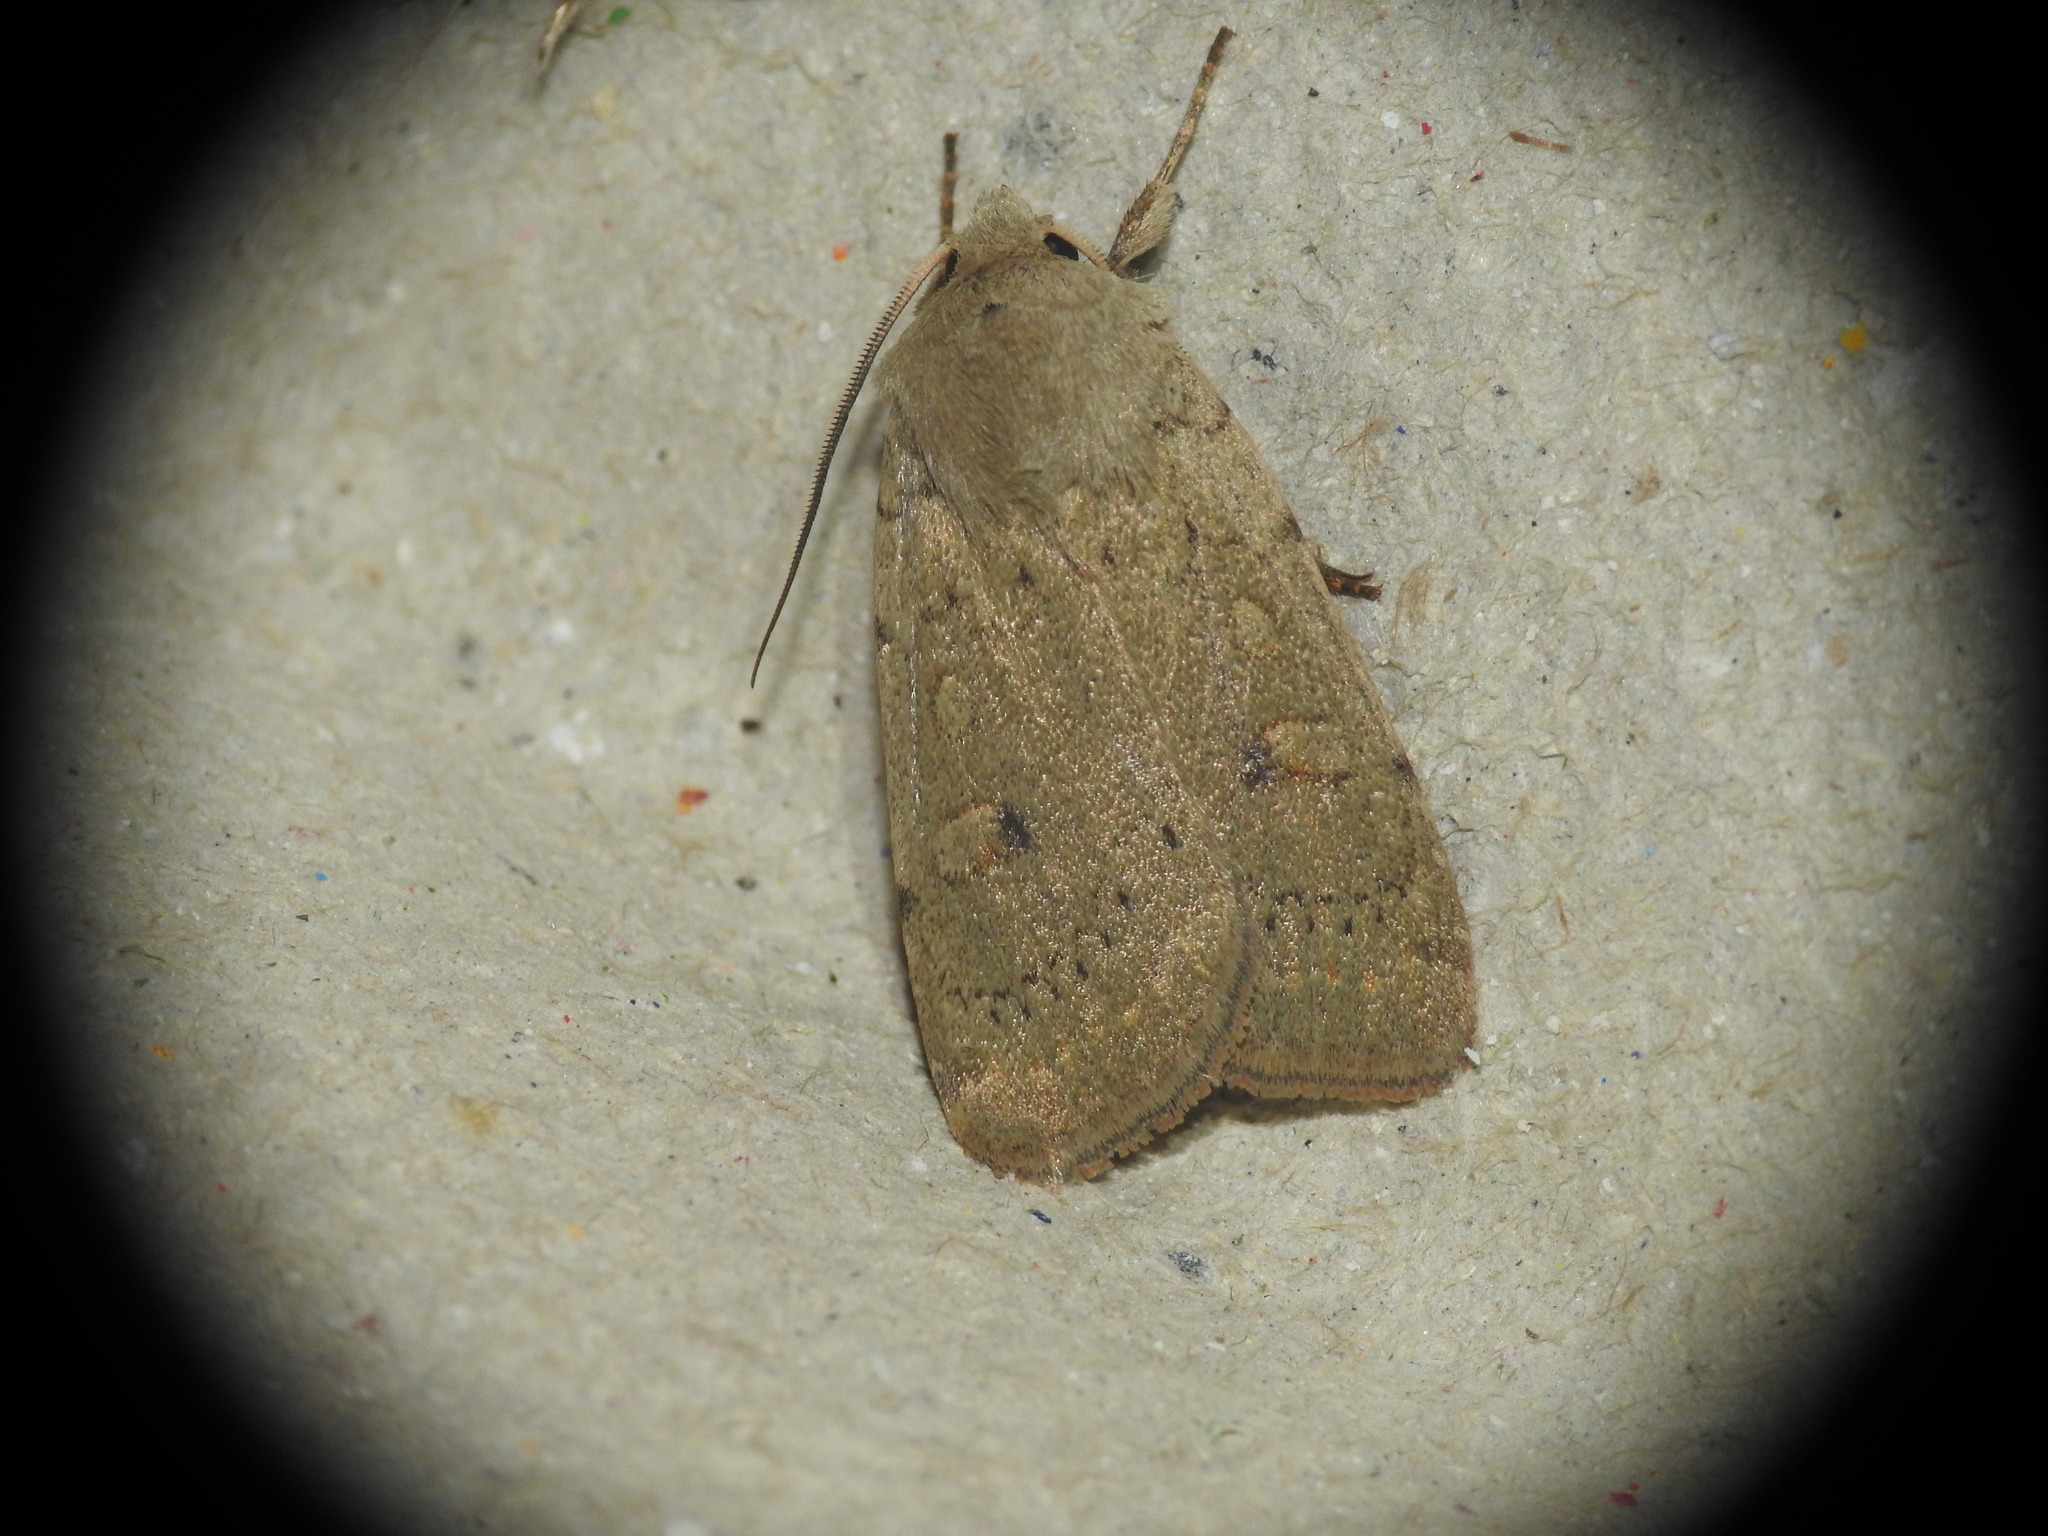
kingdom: Animalia
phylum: Arthropoda
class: Insecta
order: Lepidoptera
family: Noctuidae
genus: Xestia
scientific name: Xestia castanea
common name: Neglected rustic
